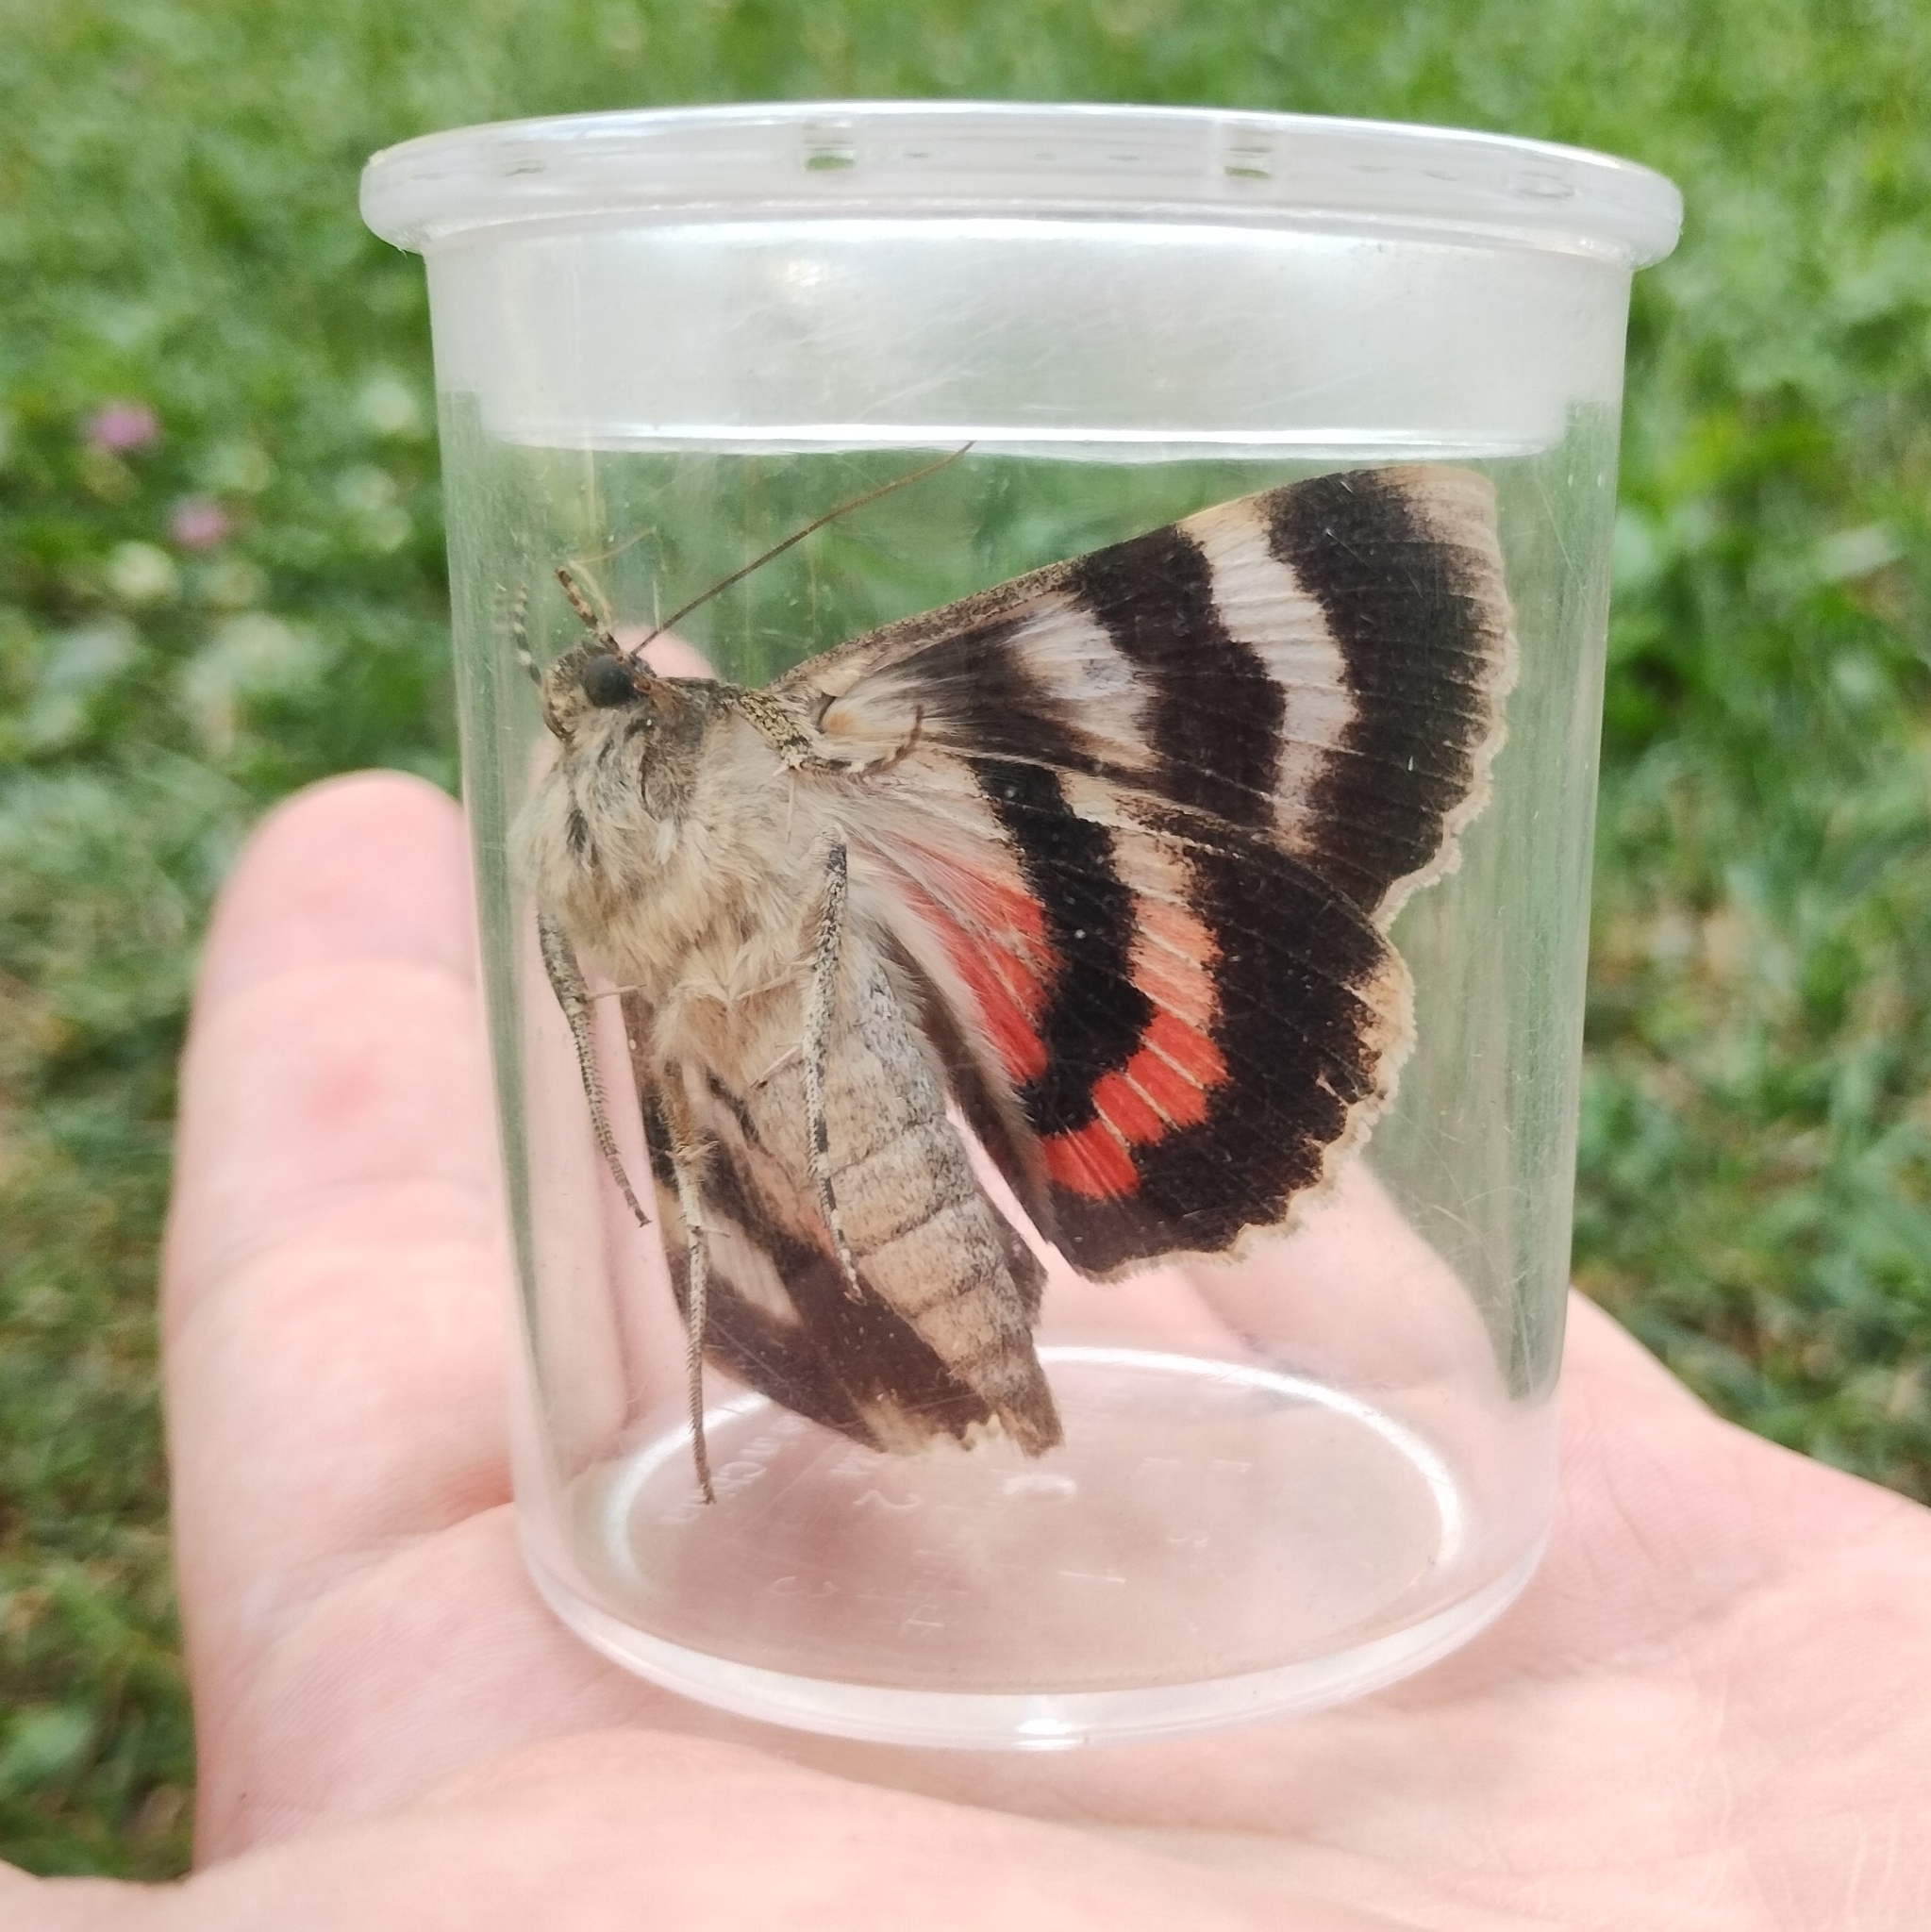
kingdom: Animalia
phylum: Arthropoda
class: Insecta
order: Lepidoptera
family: Erebidae
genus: Catocala
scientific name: Catocala elocata
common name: French red underwing
